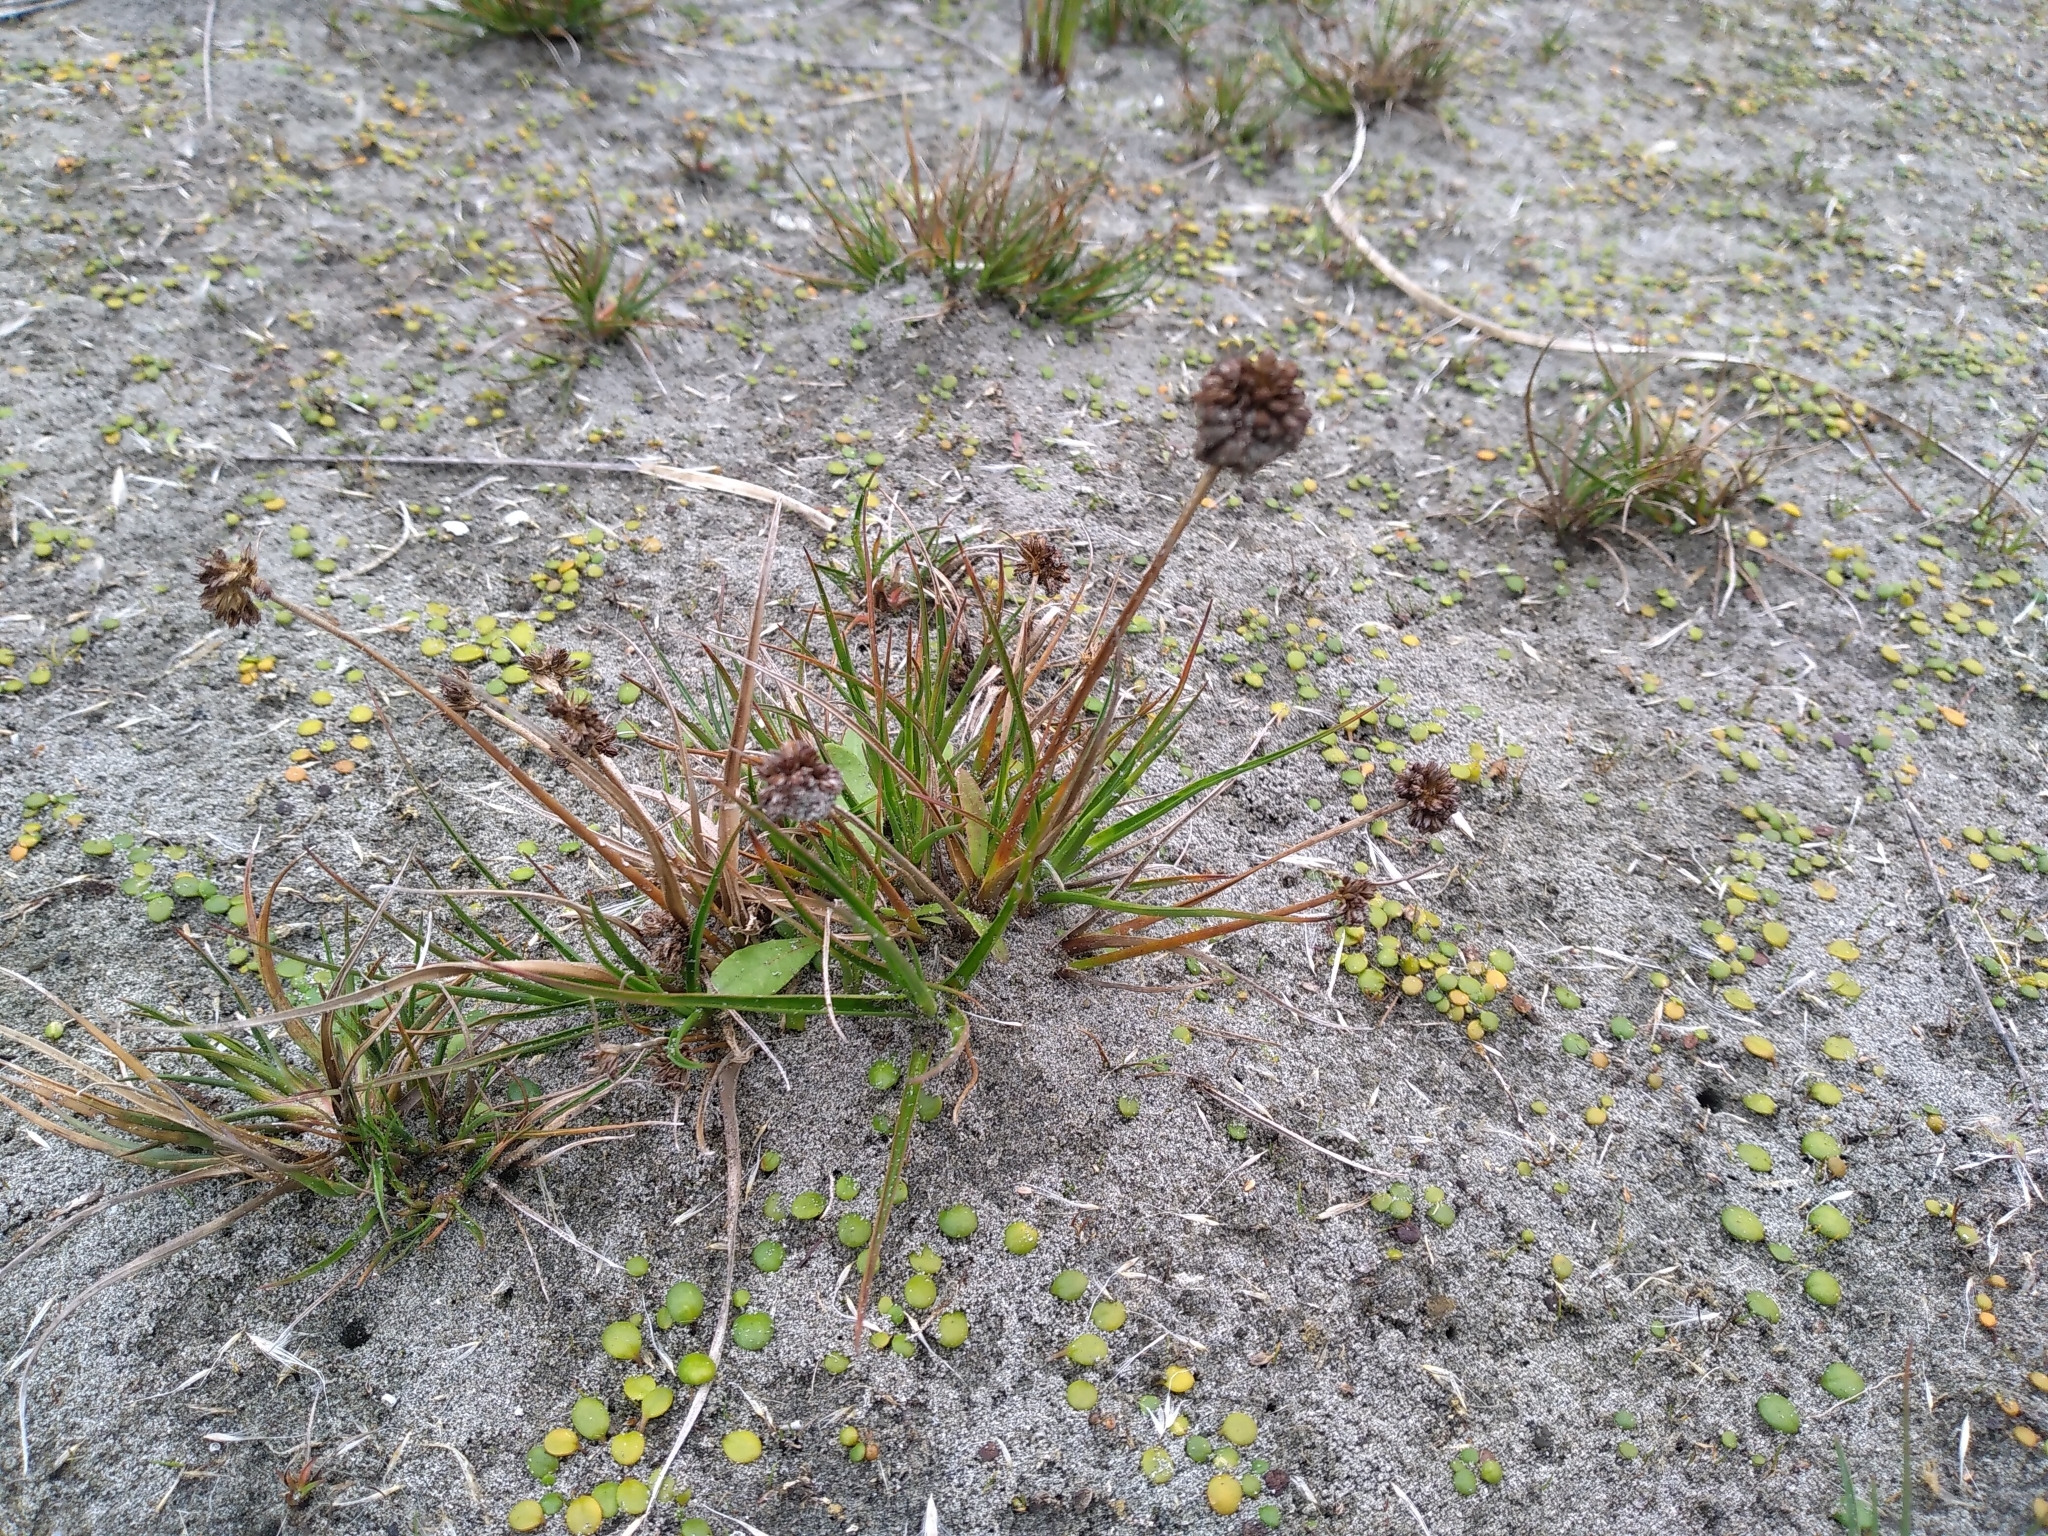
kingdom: Plantae
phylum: Tracheophyta
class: Liliopsida
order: Poales
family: Juncaceae
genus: Juncus
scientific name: Juncus caespiticius
